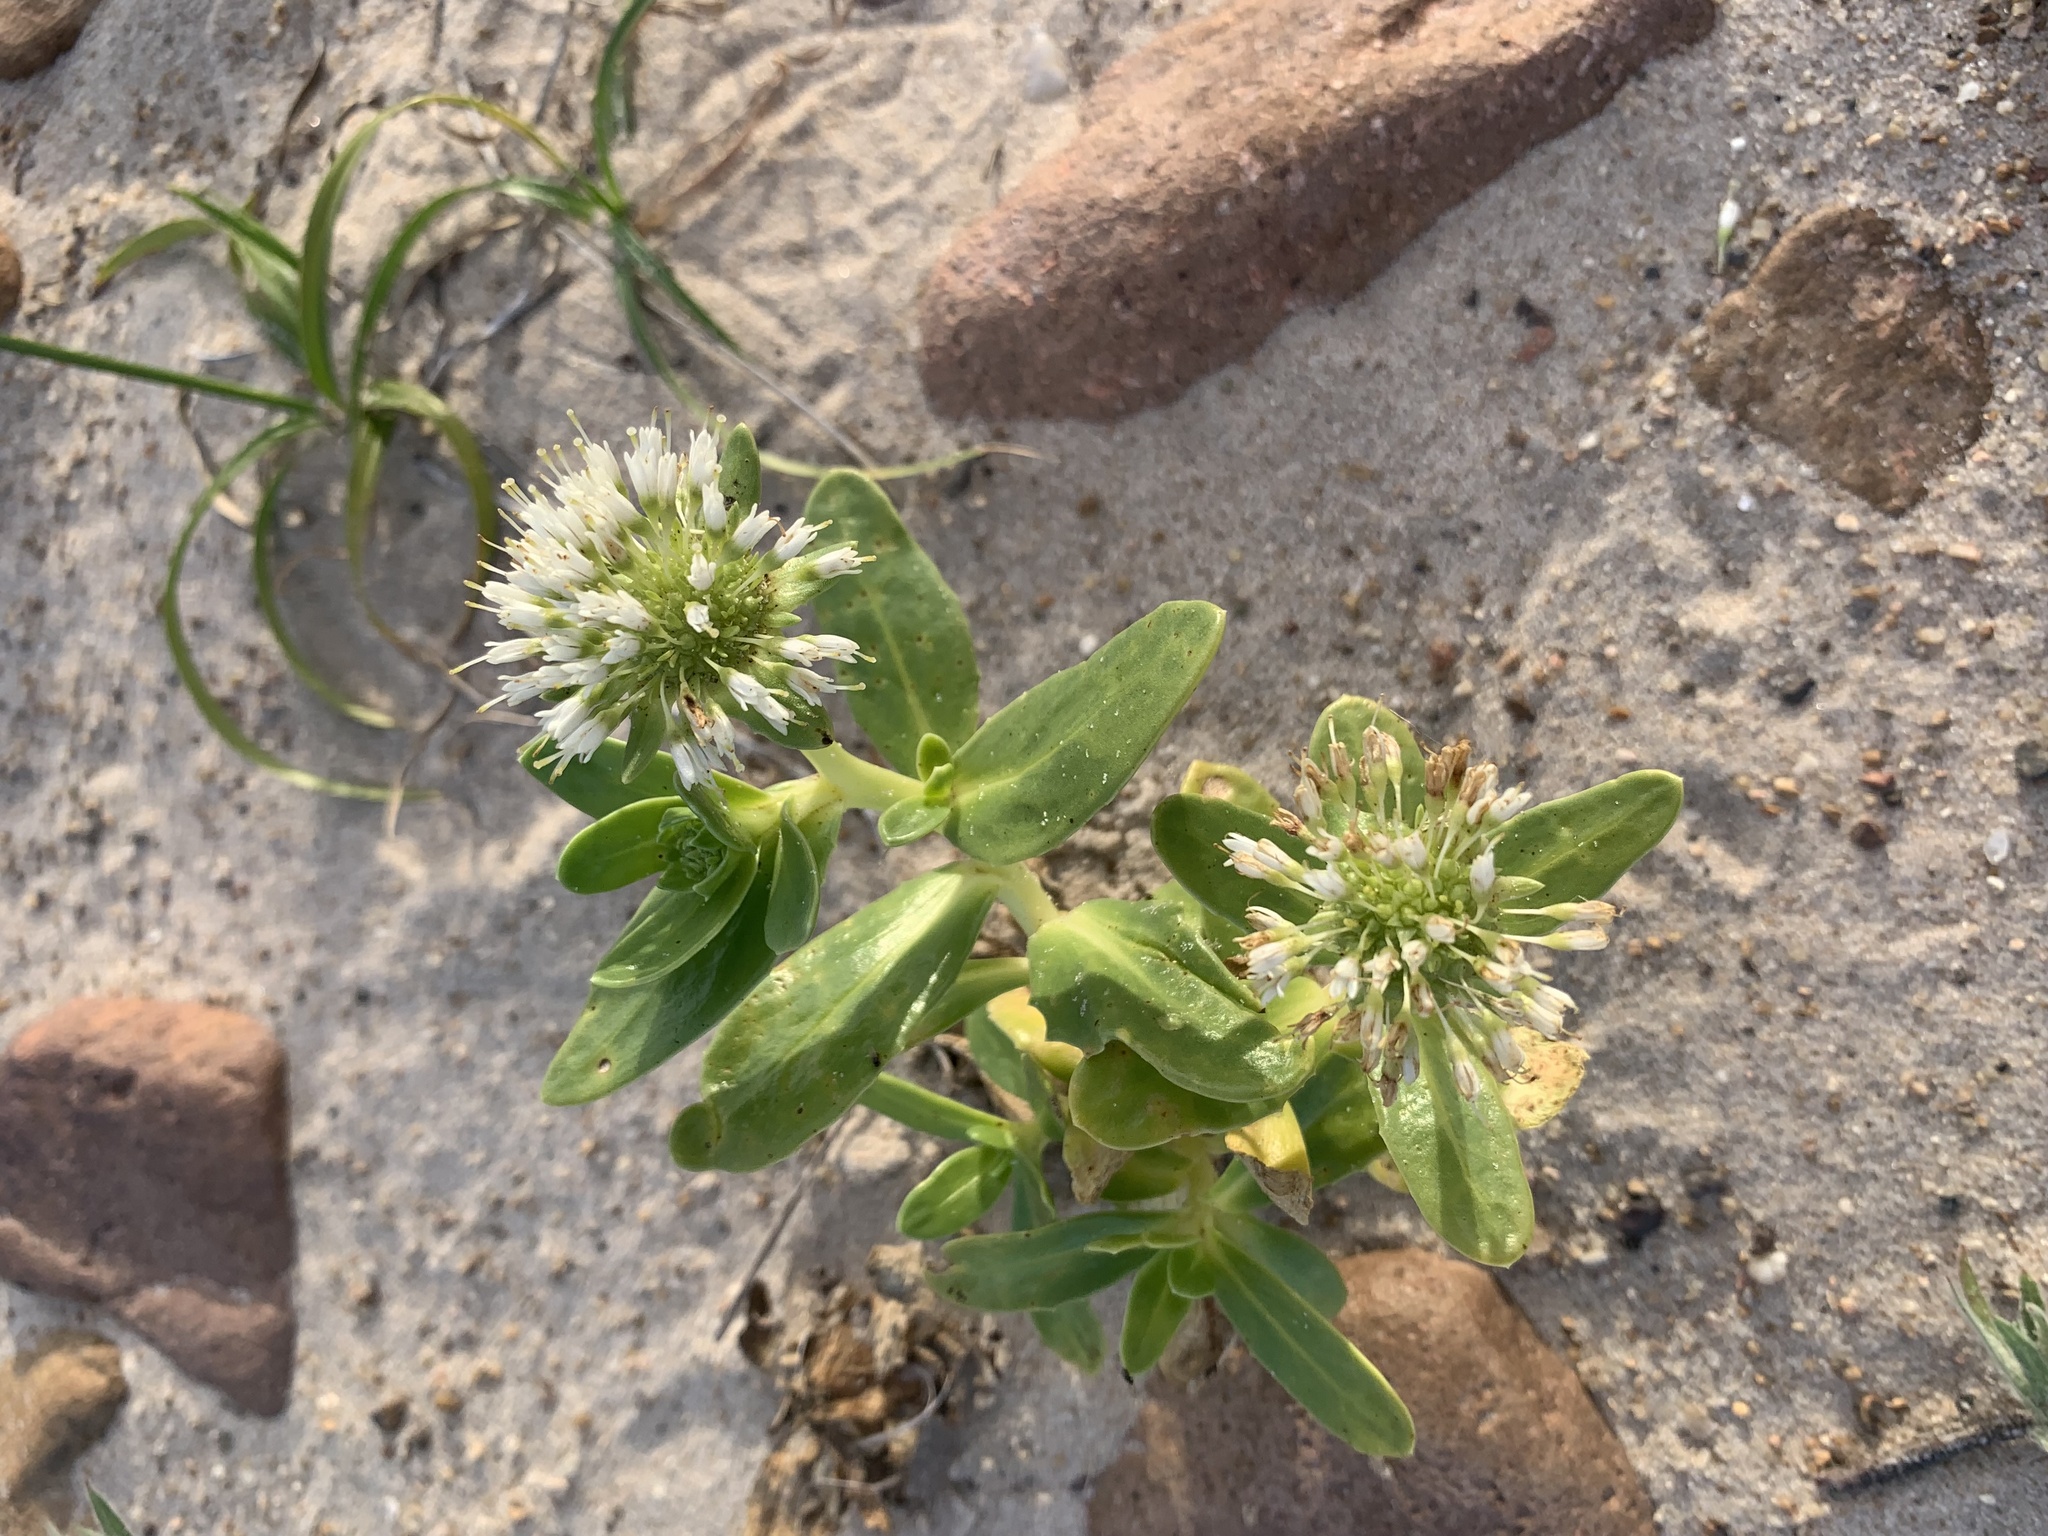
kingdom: Plantae
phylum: Tracheophyta
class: Magnoliopsida
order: Asterales
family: Calyceraceae
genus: Calycera
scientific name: Calycera crassifolia
